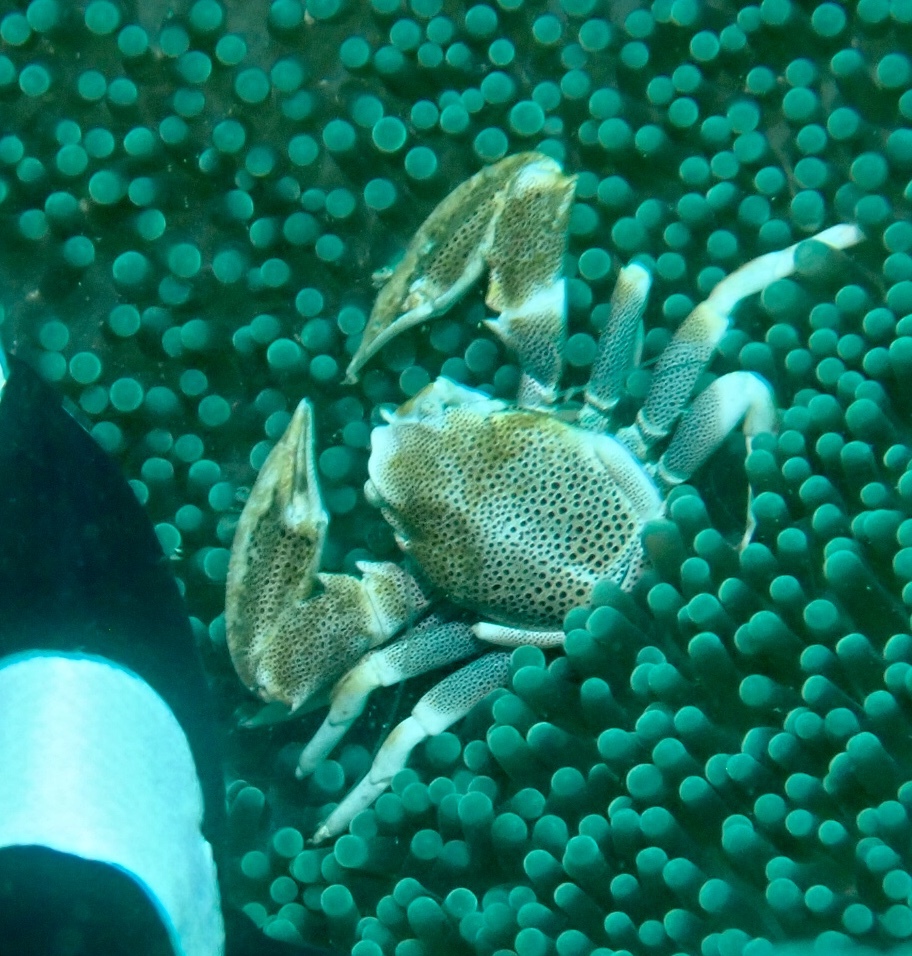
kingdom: Animalia
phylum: Arthropoda
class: Malacostraca
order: Decapoda
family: Porcellanidae
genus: Neopetrolisthes
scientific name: Neopetrolisthes maculatus
